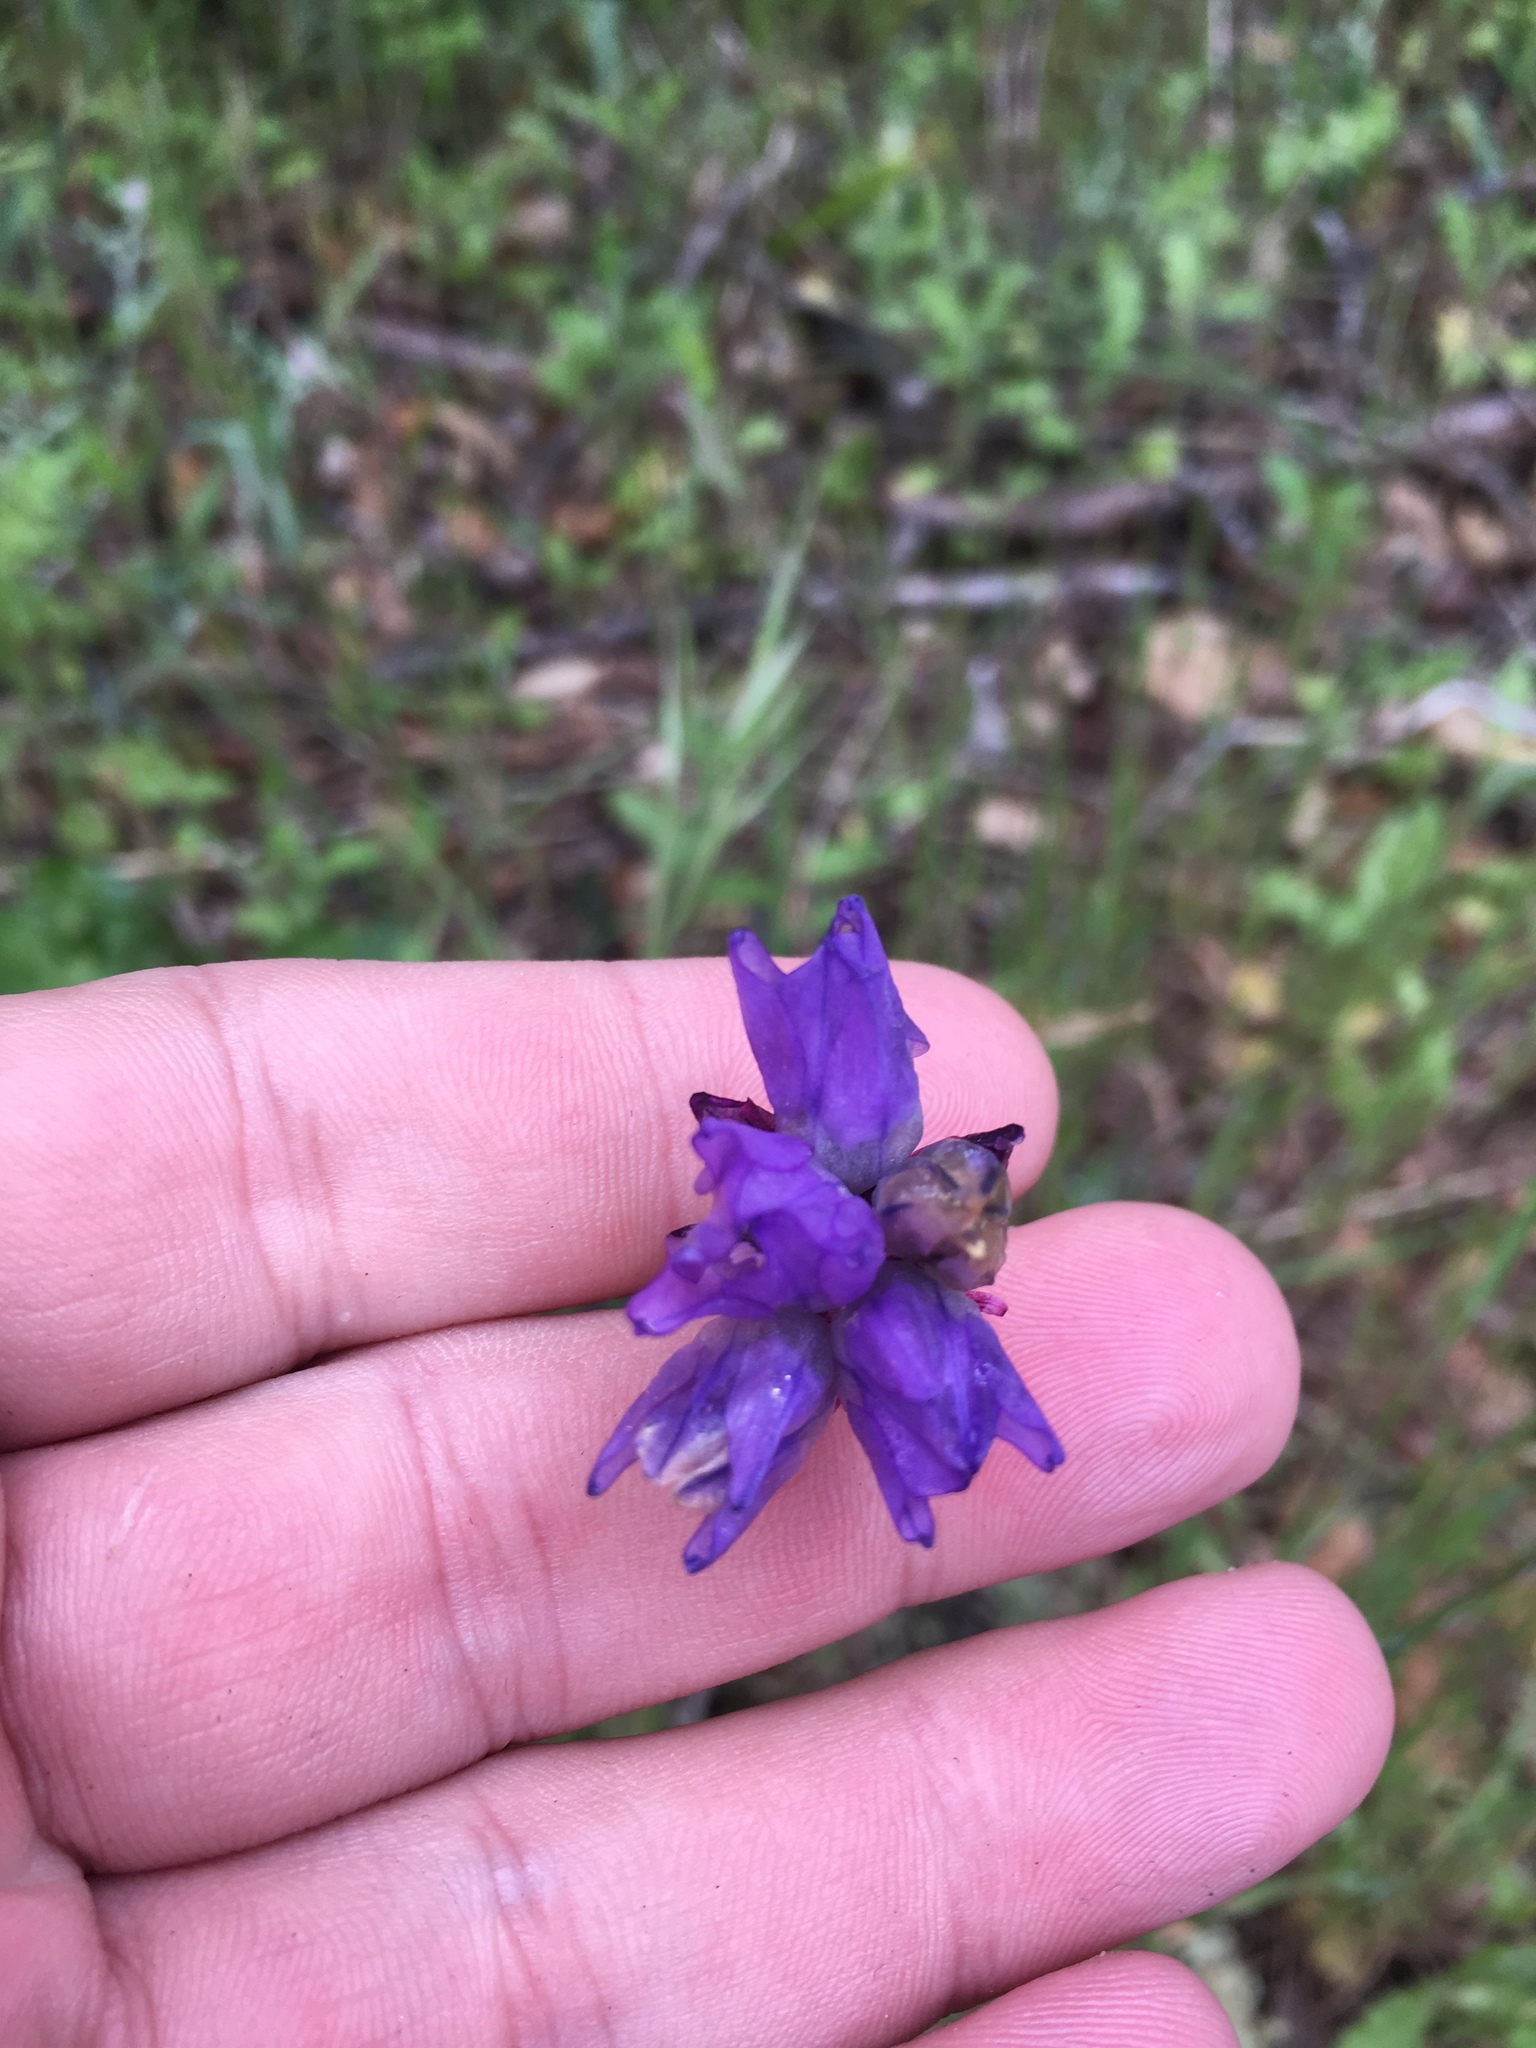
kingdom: Plantae
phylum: Tracheophyta
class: Liliopsida
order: Asparagales
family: Asparagaceae
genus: Dipterostemon
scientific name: Dipterostemon capitatus
